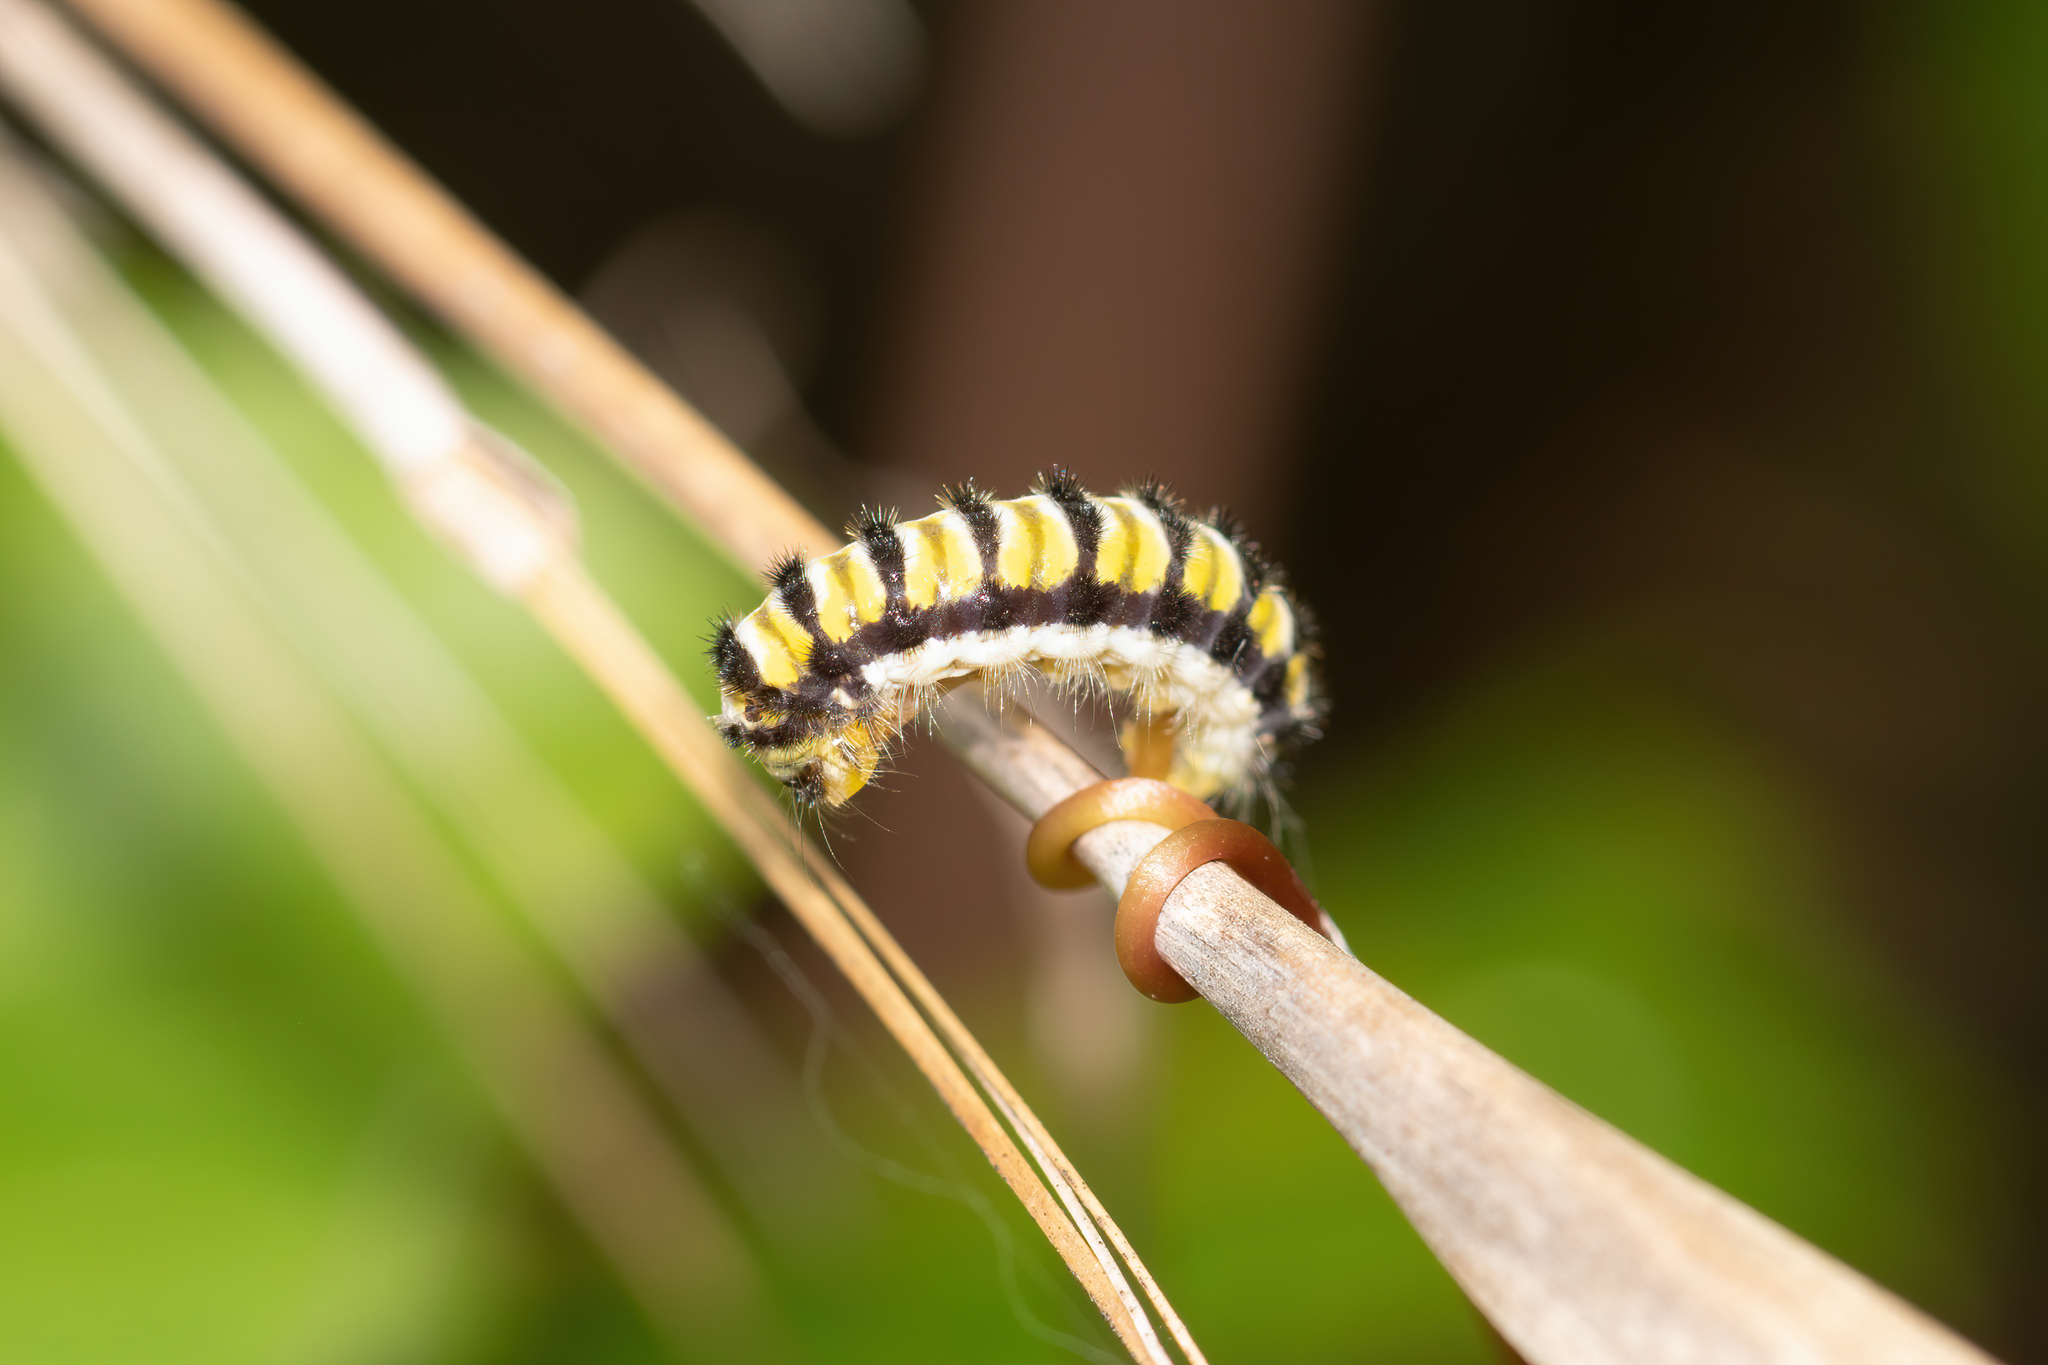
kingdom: Animalia
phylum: Arthropoda
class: Insecta
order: Lepidoptera
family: Zygaenidae
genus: Harrisina
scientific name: Harrisina americana
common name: Grapeleaf skeletonizer moth
